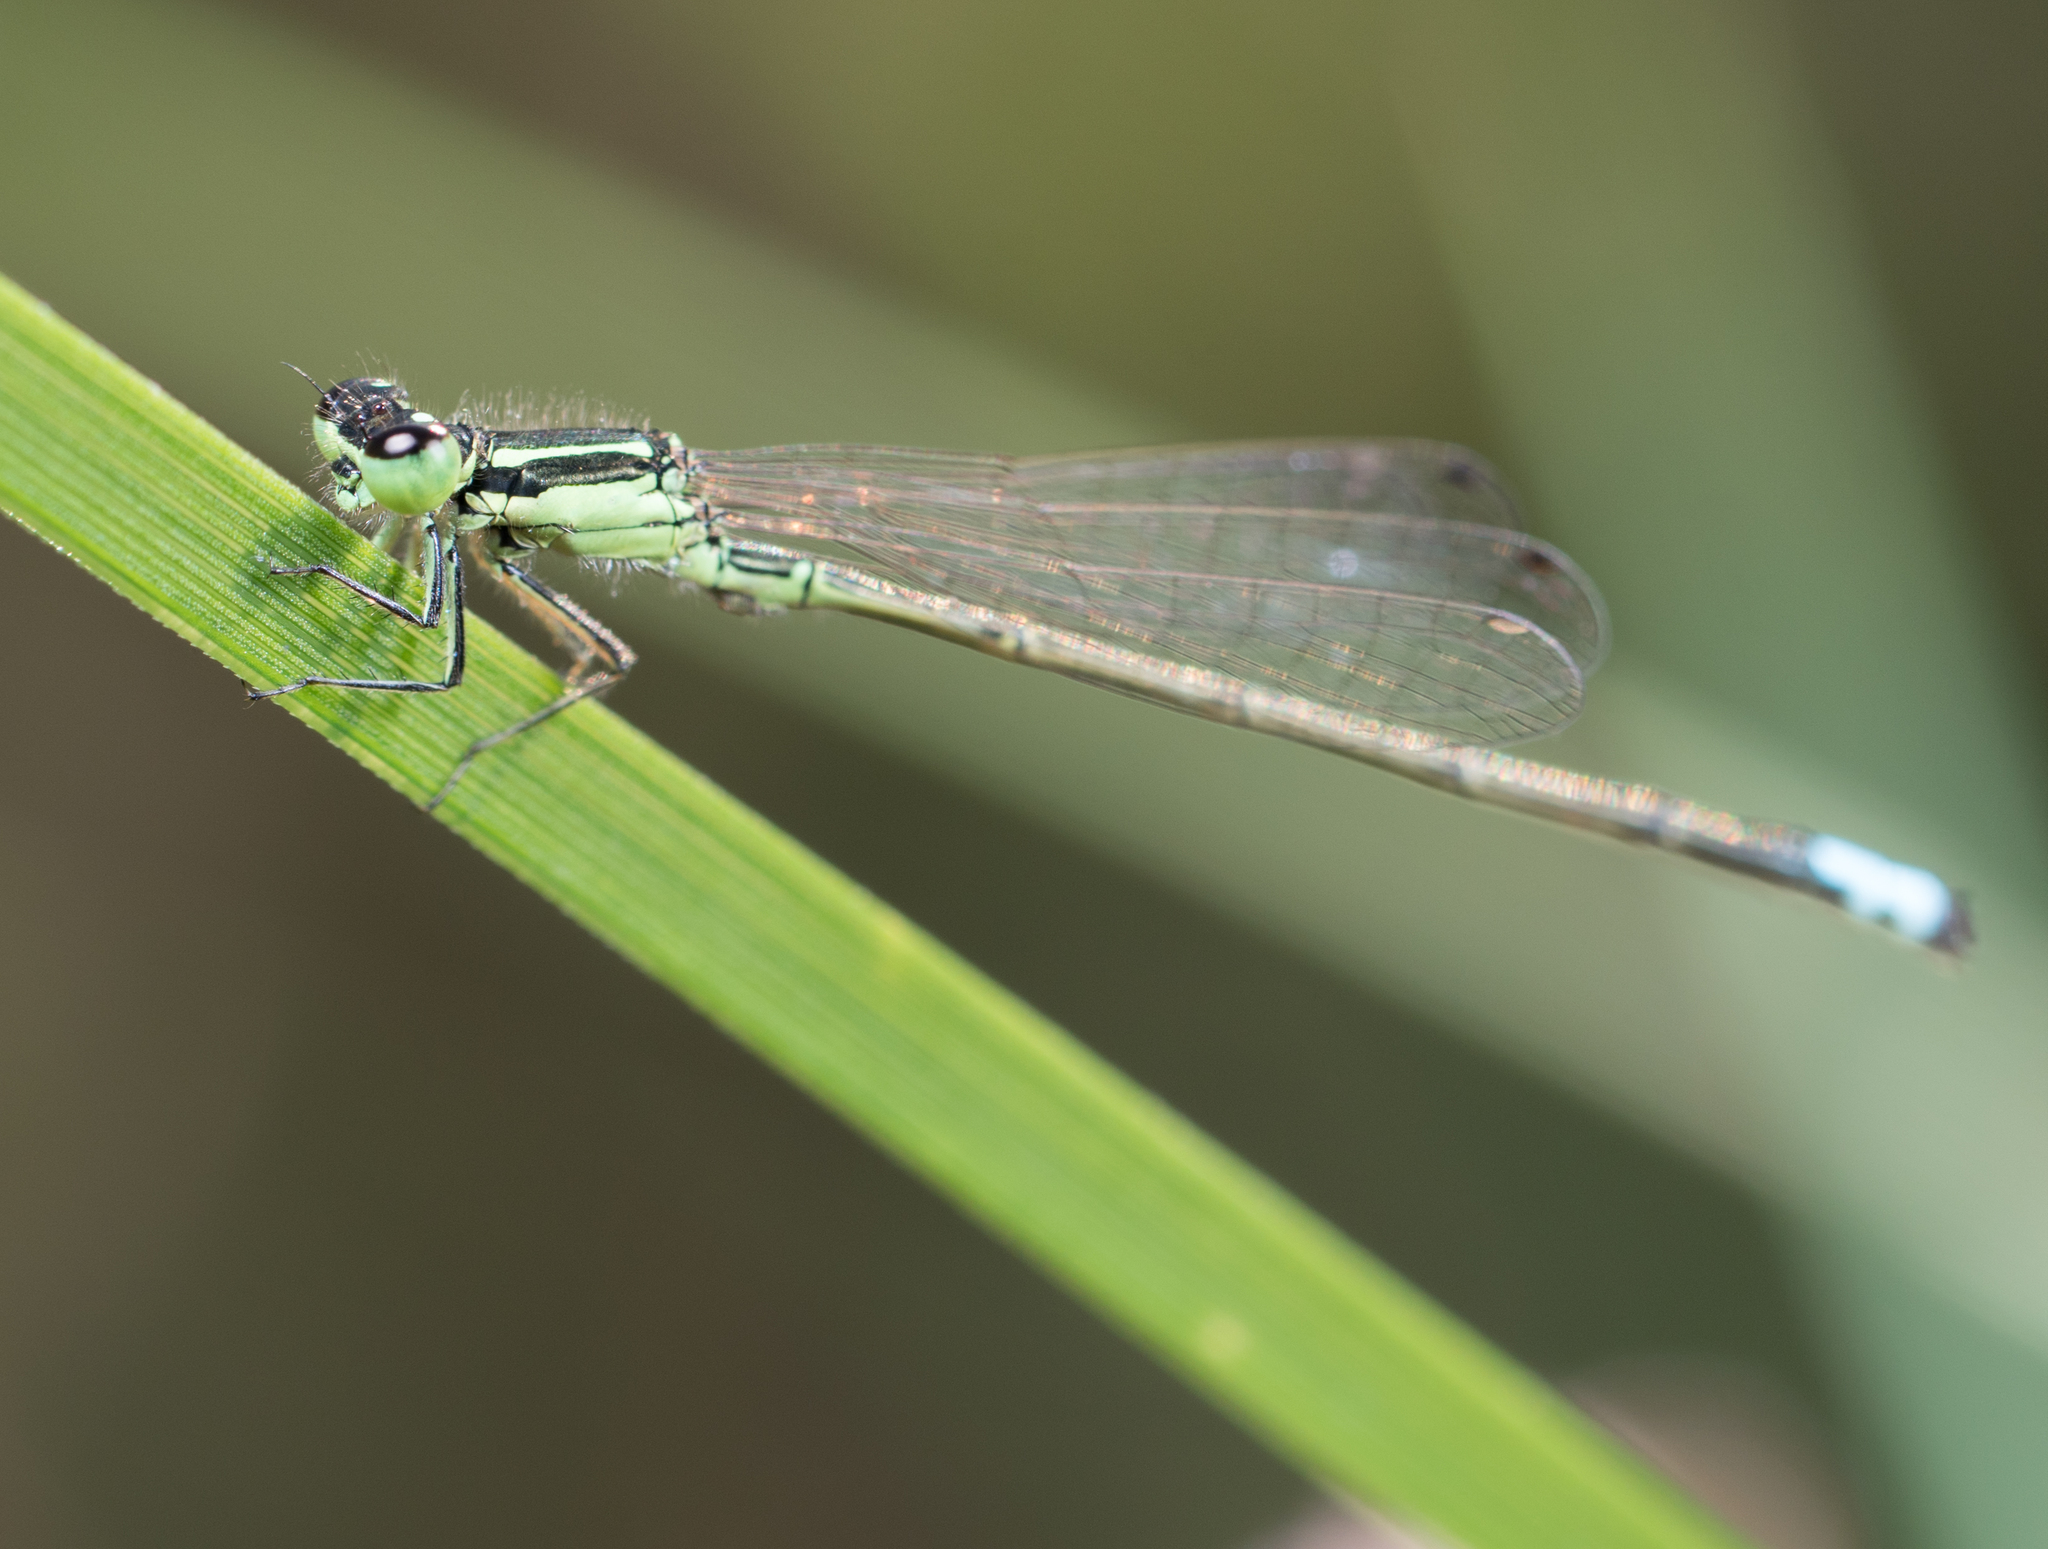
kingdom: Animalia
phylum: Arthropoda
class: Insecta
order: Odonata
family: Coenagrionidae
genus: Ischnura
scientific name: Ischnura verticalis
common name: Eastern forktail
